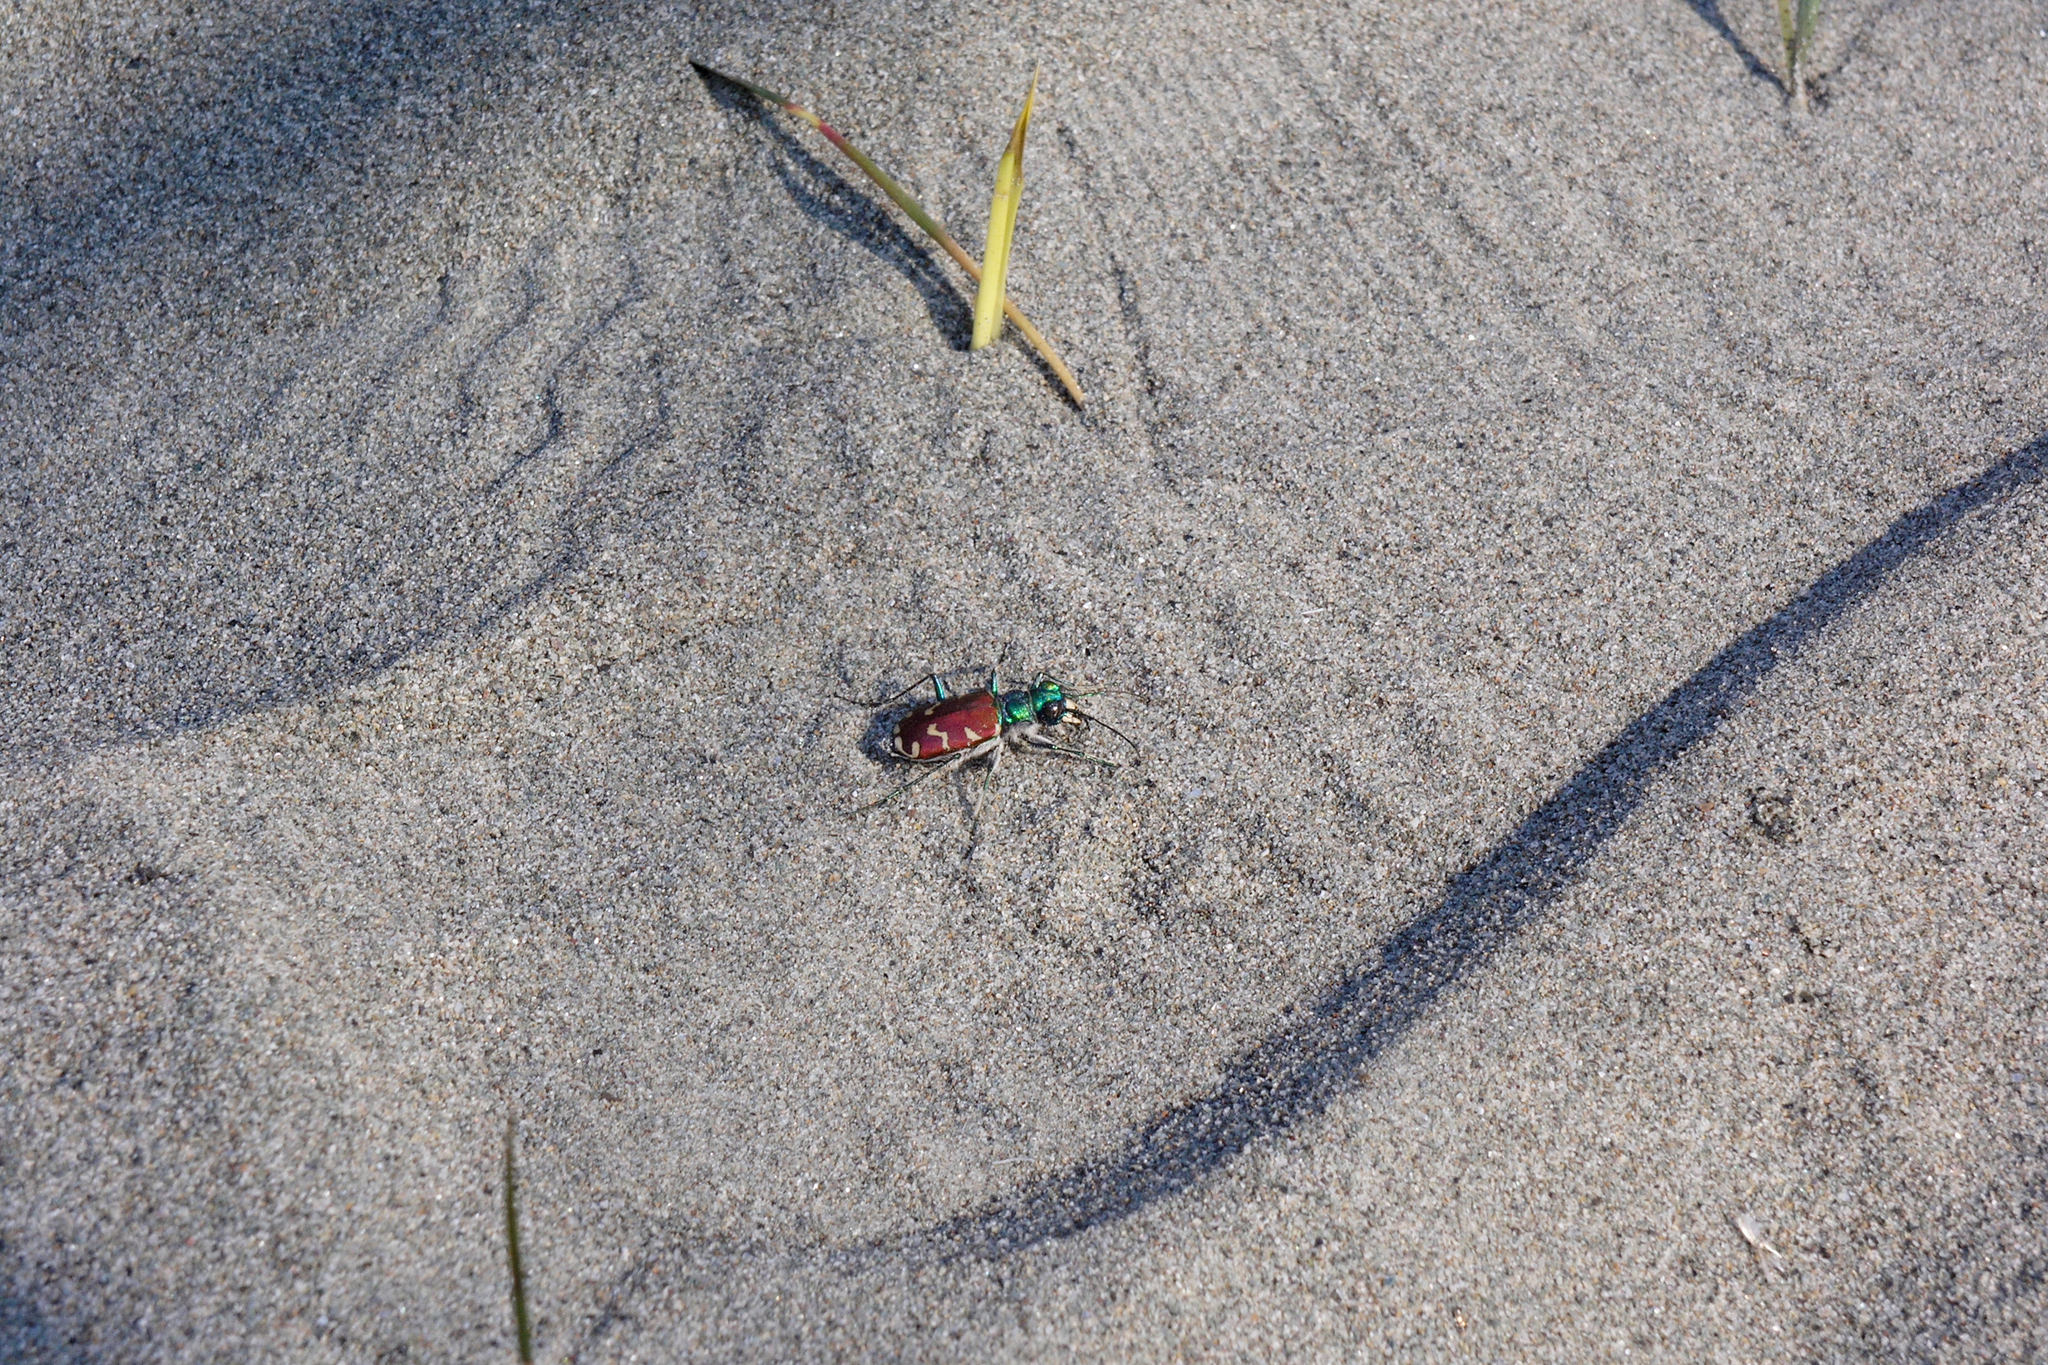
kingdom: Animalia
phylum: Arthropoda
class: Insecta
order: Coleoptera
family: Carabidae
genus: Cicindela
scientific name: Cicindela coerulea
